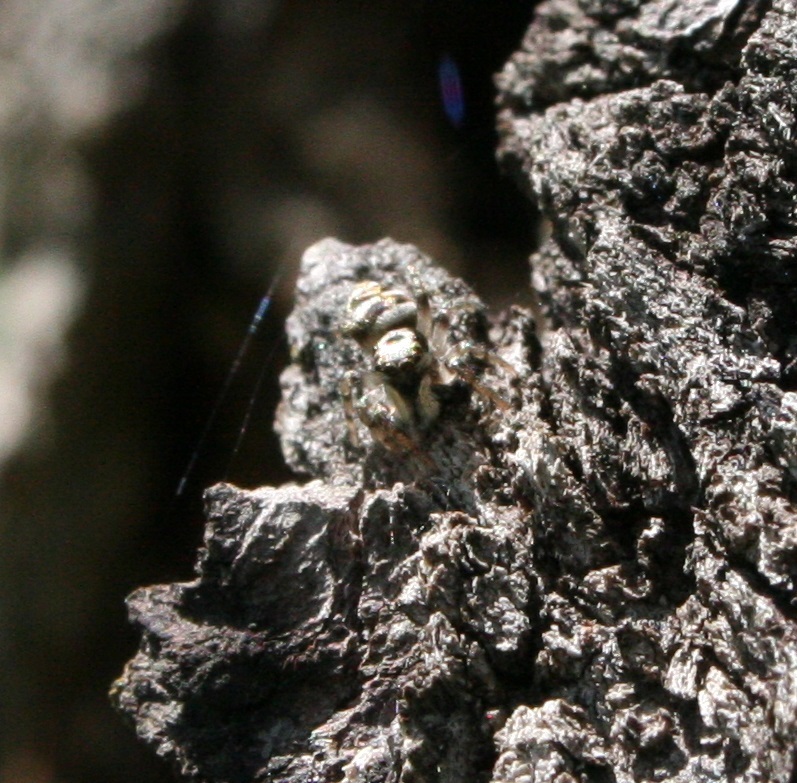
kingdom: Animalia
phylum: Arthropoda
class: Arachnida
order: Araneae
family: Salticidae
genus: Salticus
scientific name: Salticus scenicus
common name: Zebra jumper
